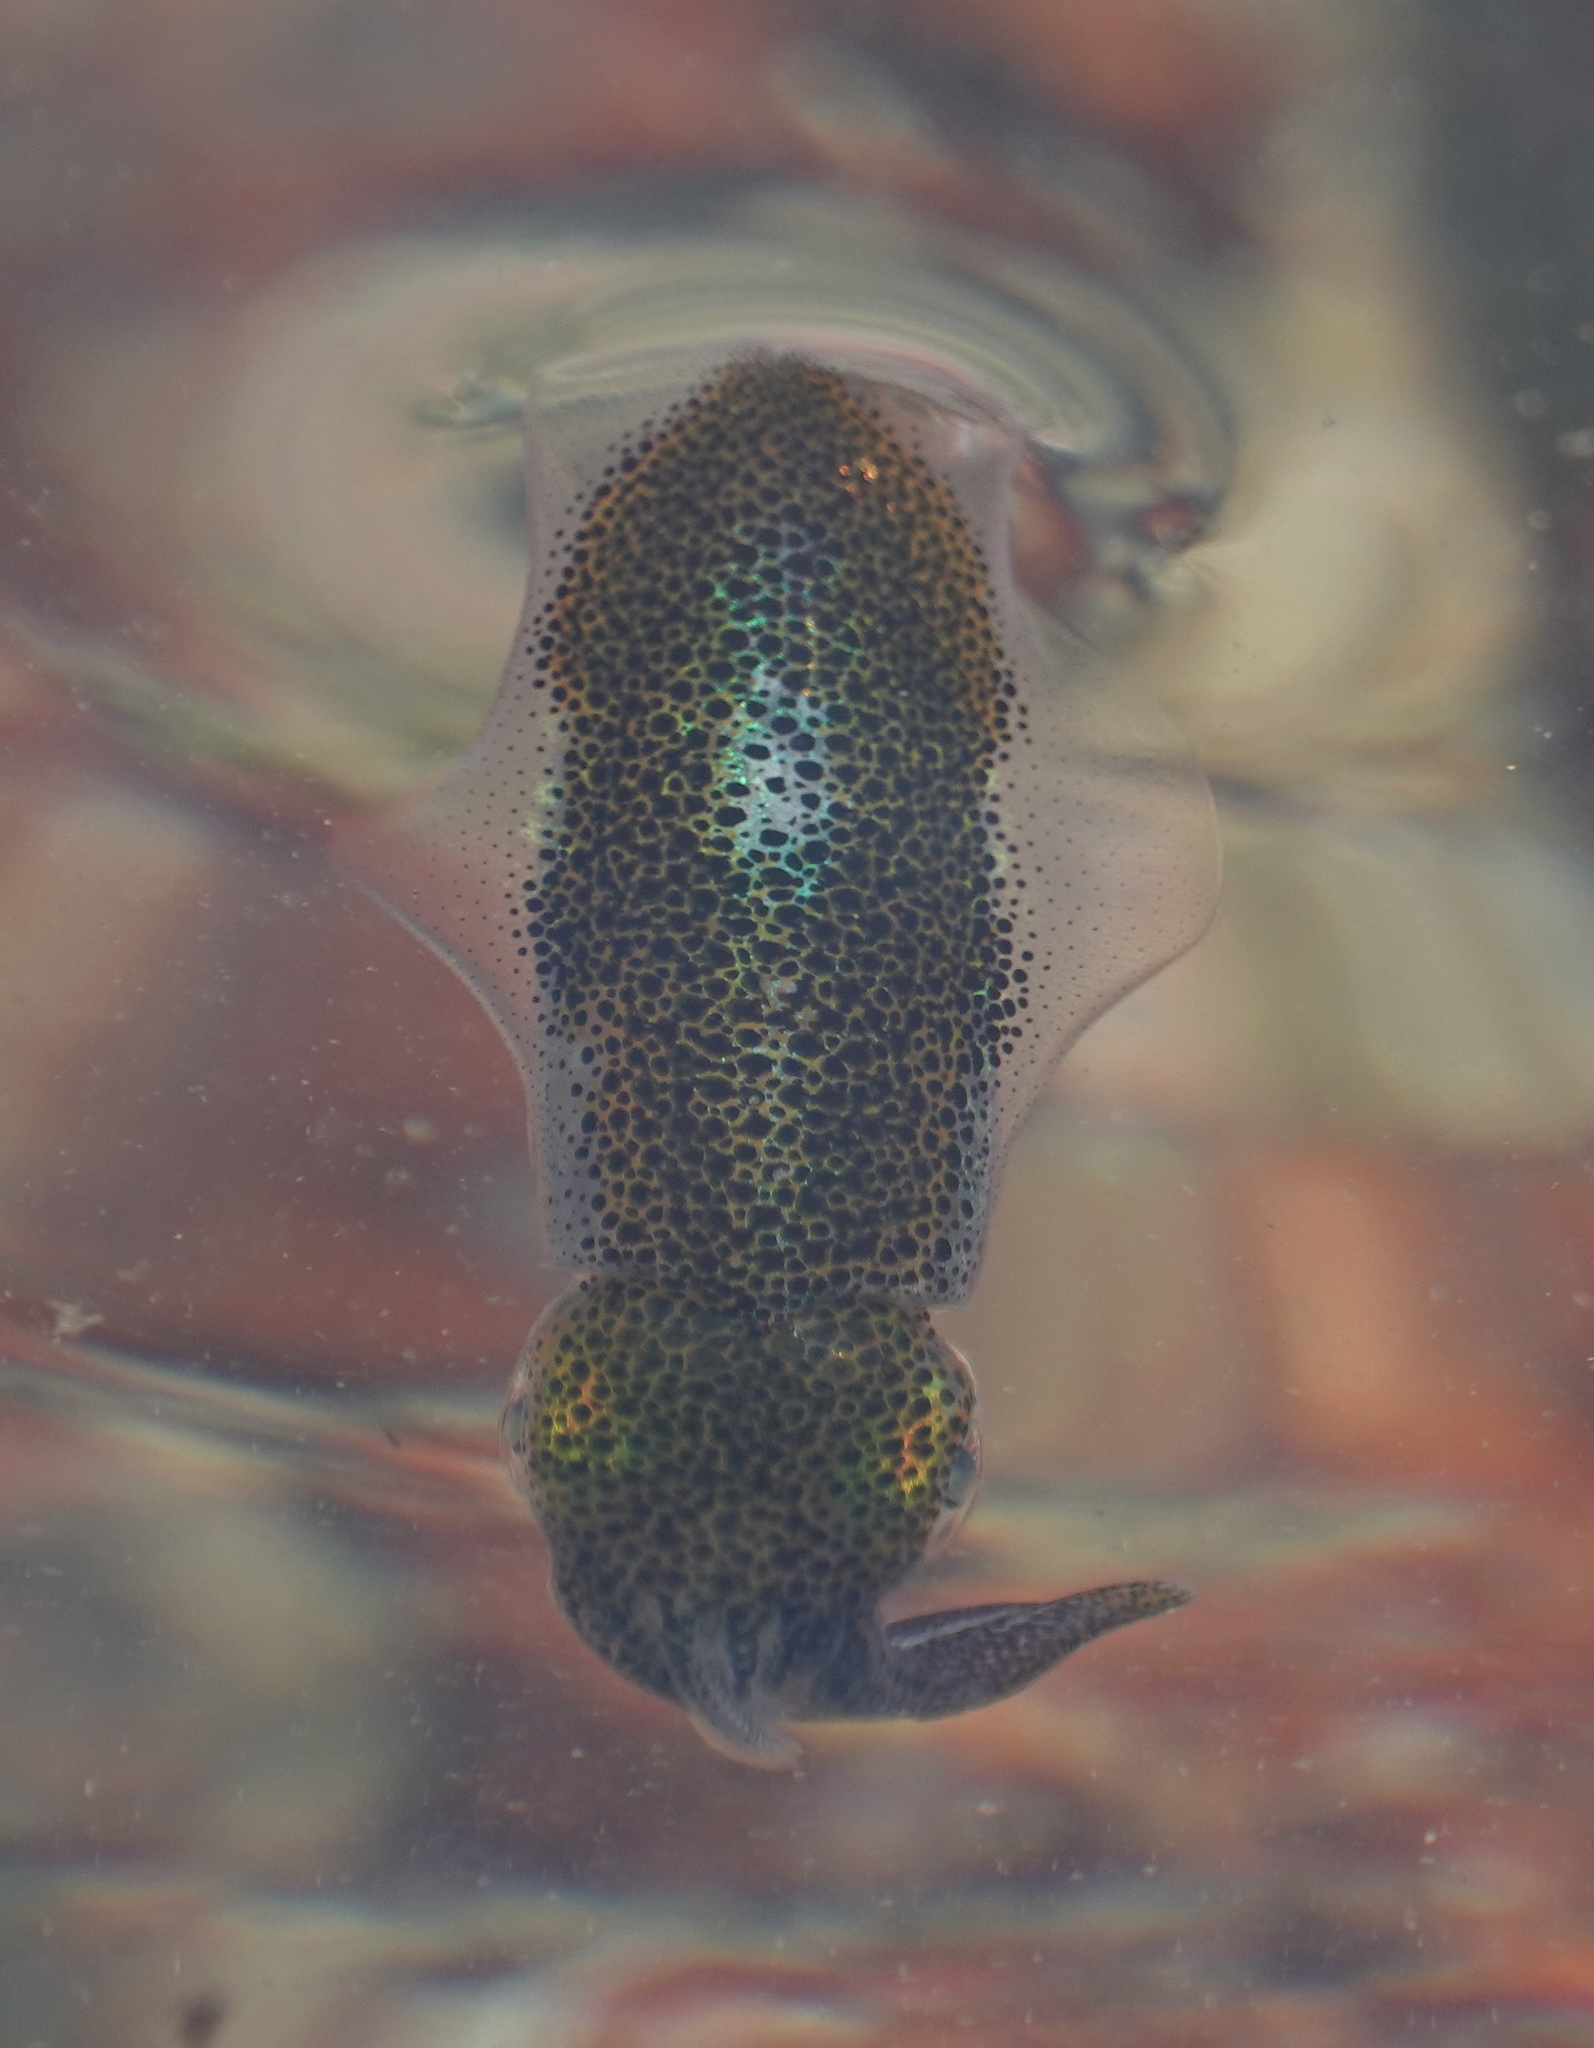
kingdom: Animalia
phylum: Mollusca
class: Cephalopoda
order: Myopsida
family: Loliginidae
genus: Sepioteuthis
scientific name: Sepioteuthis lessoniana
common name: Bigfin reef squid
